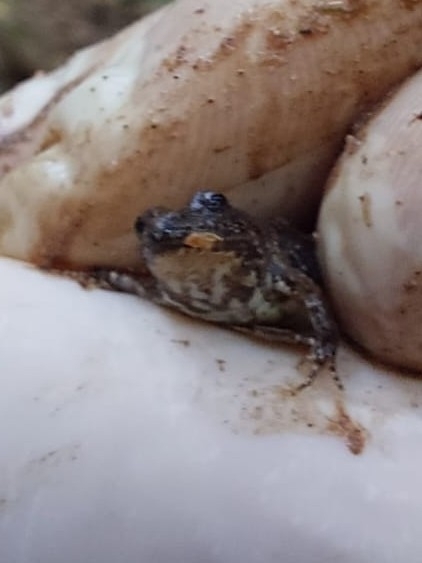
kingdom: Animalia
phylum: Chordata
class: Amphibia
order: Anura
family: Leptodactylidae
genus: Pseudopaludicola
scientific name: Pseudopaludicola falcipes
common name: Hensel’s swamp frog
